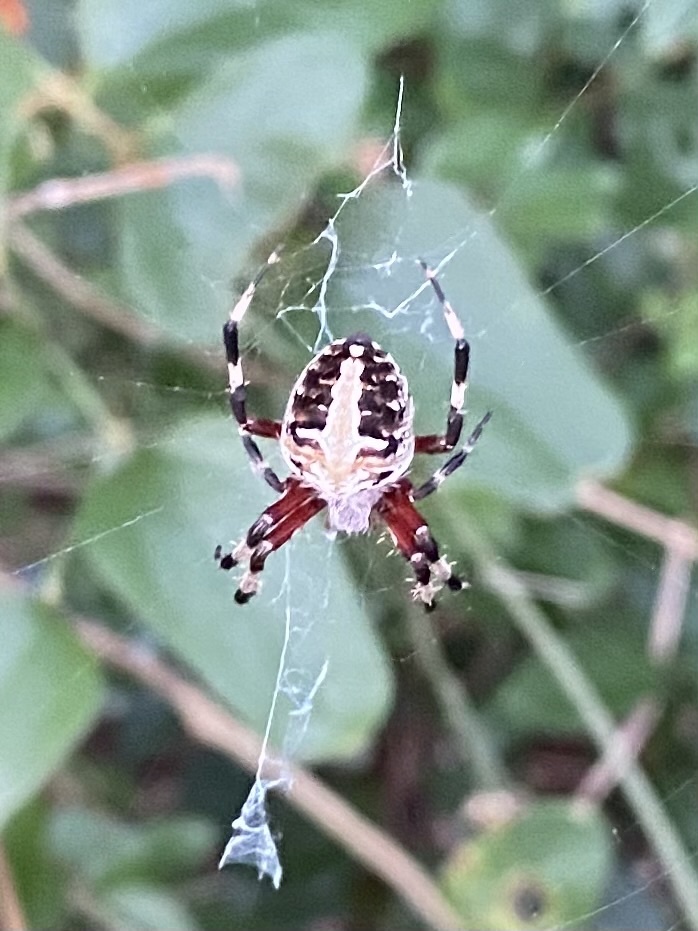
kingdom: Animalia
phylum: Arthropoda
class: Arachnida
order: Araneae
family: Araneidae
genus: Neoscona
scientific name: Neoscona domiciliorum
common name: Red-femured spotted orbweaver
